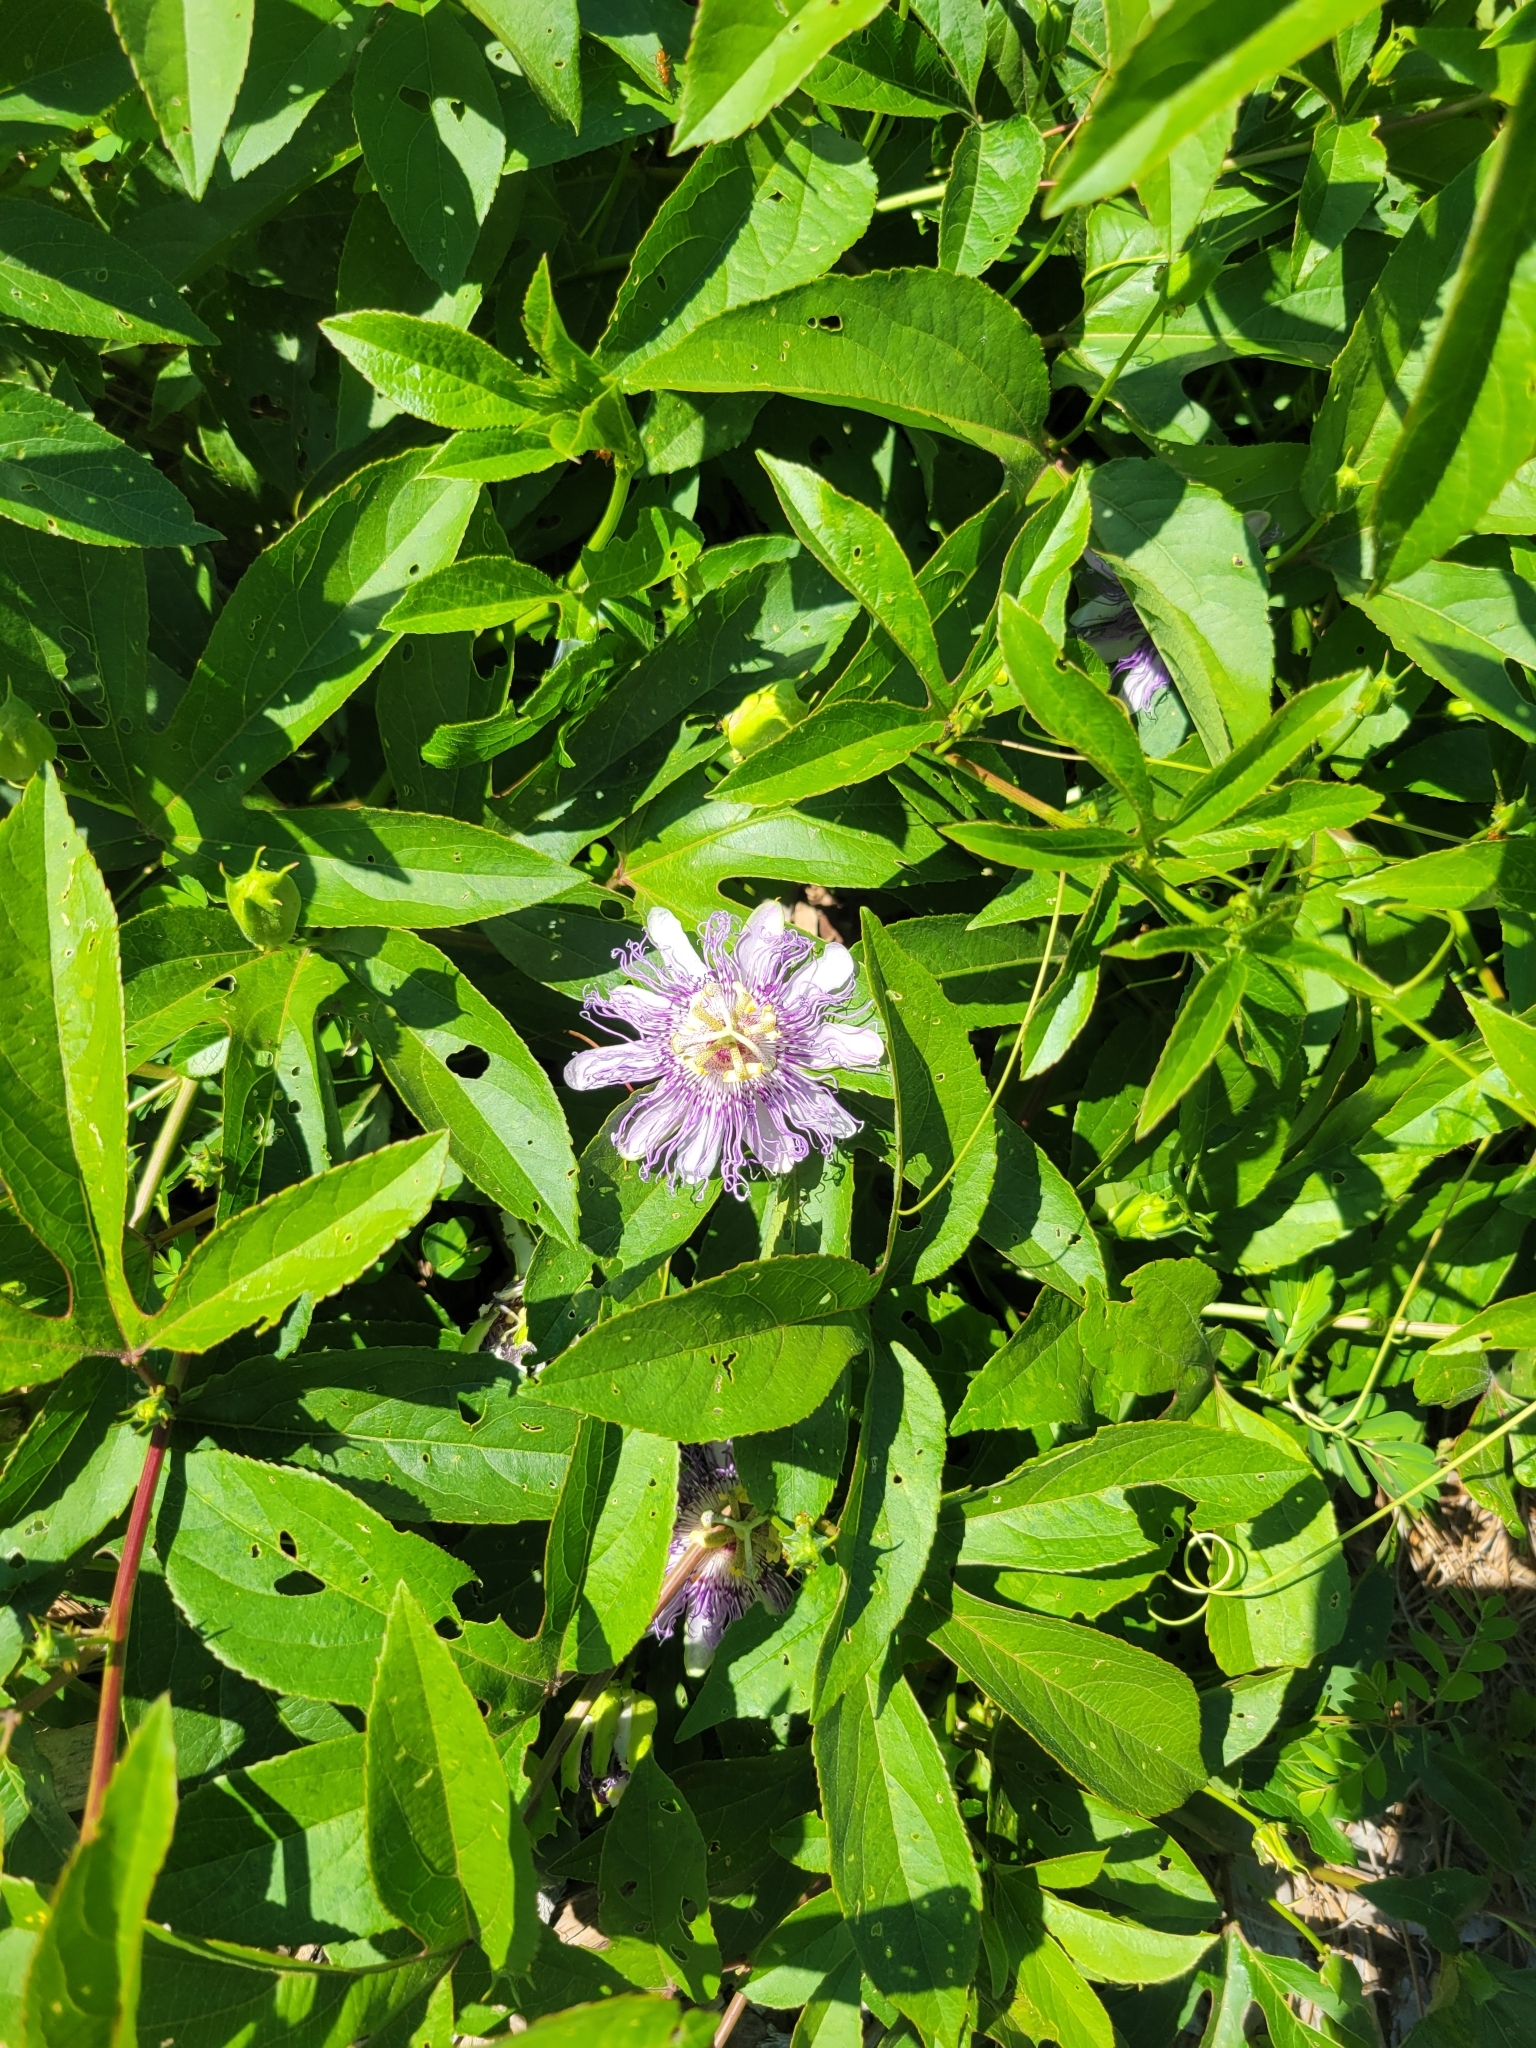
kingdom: Plantae
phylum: Tracheophyta
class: Magnoliopsida
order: Malpighiales
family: Passifloraceae
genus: Passiflora
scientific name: Passiflora incarnata
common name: Apricot-vine
